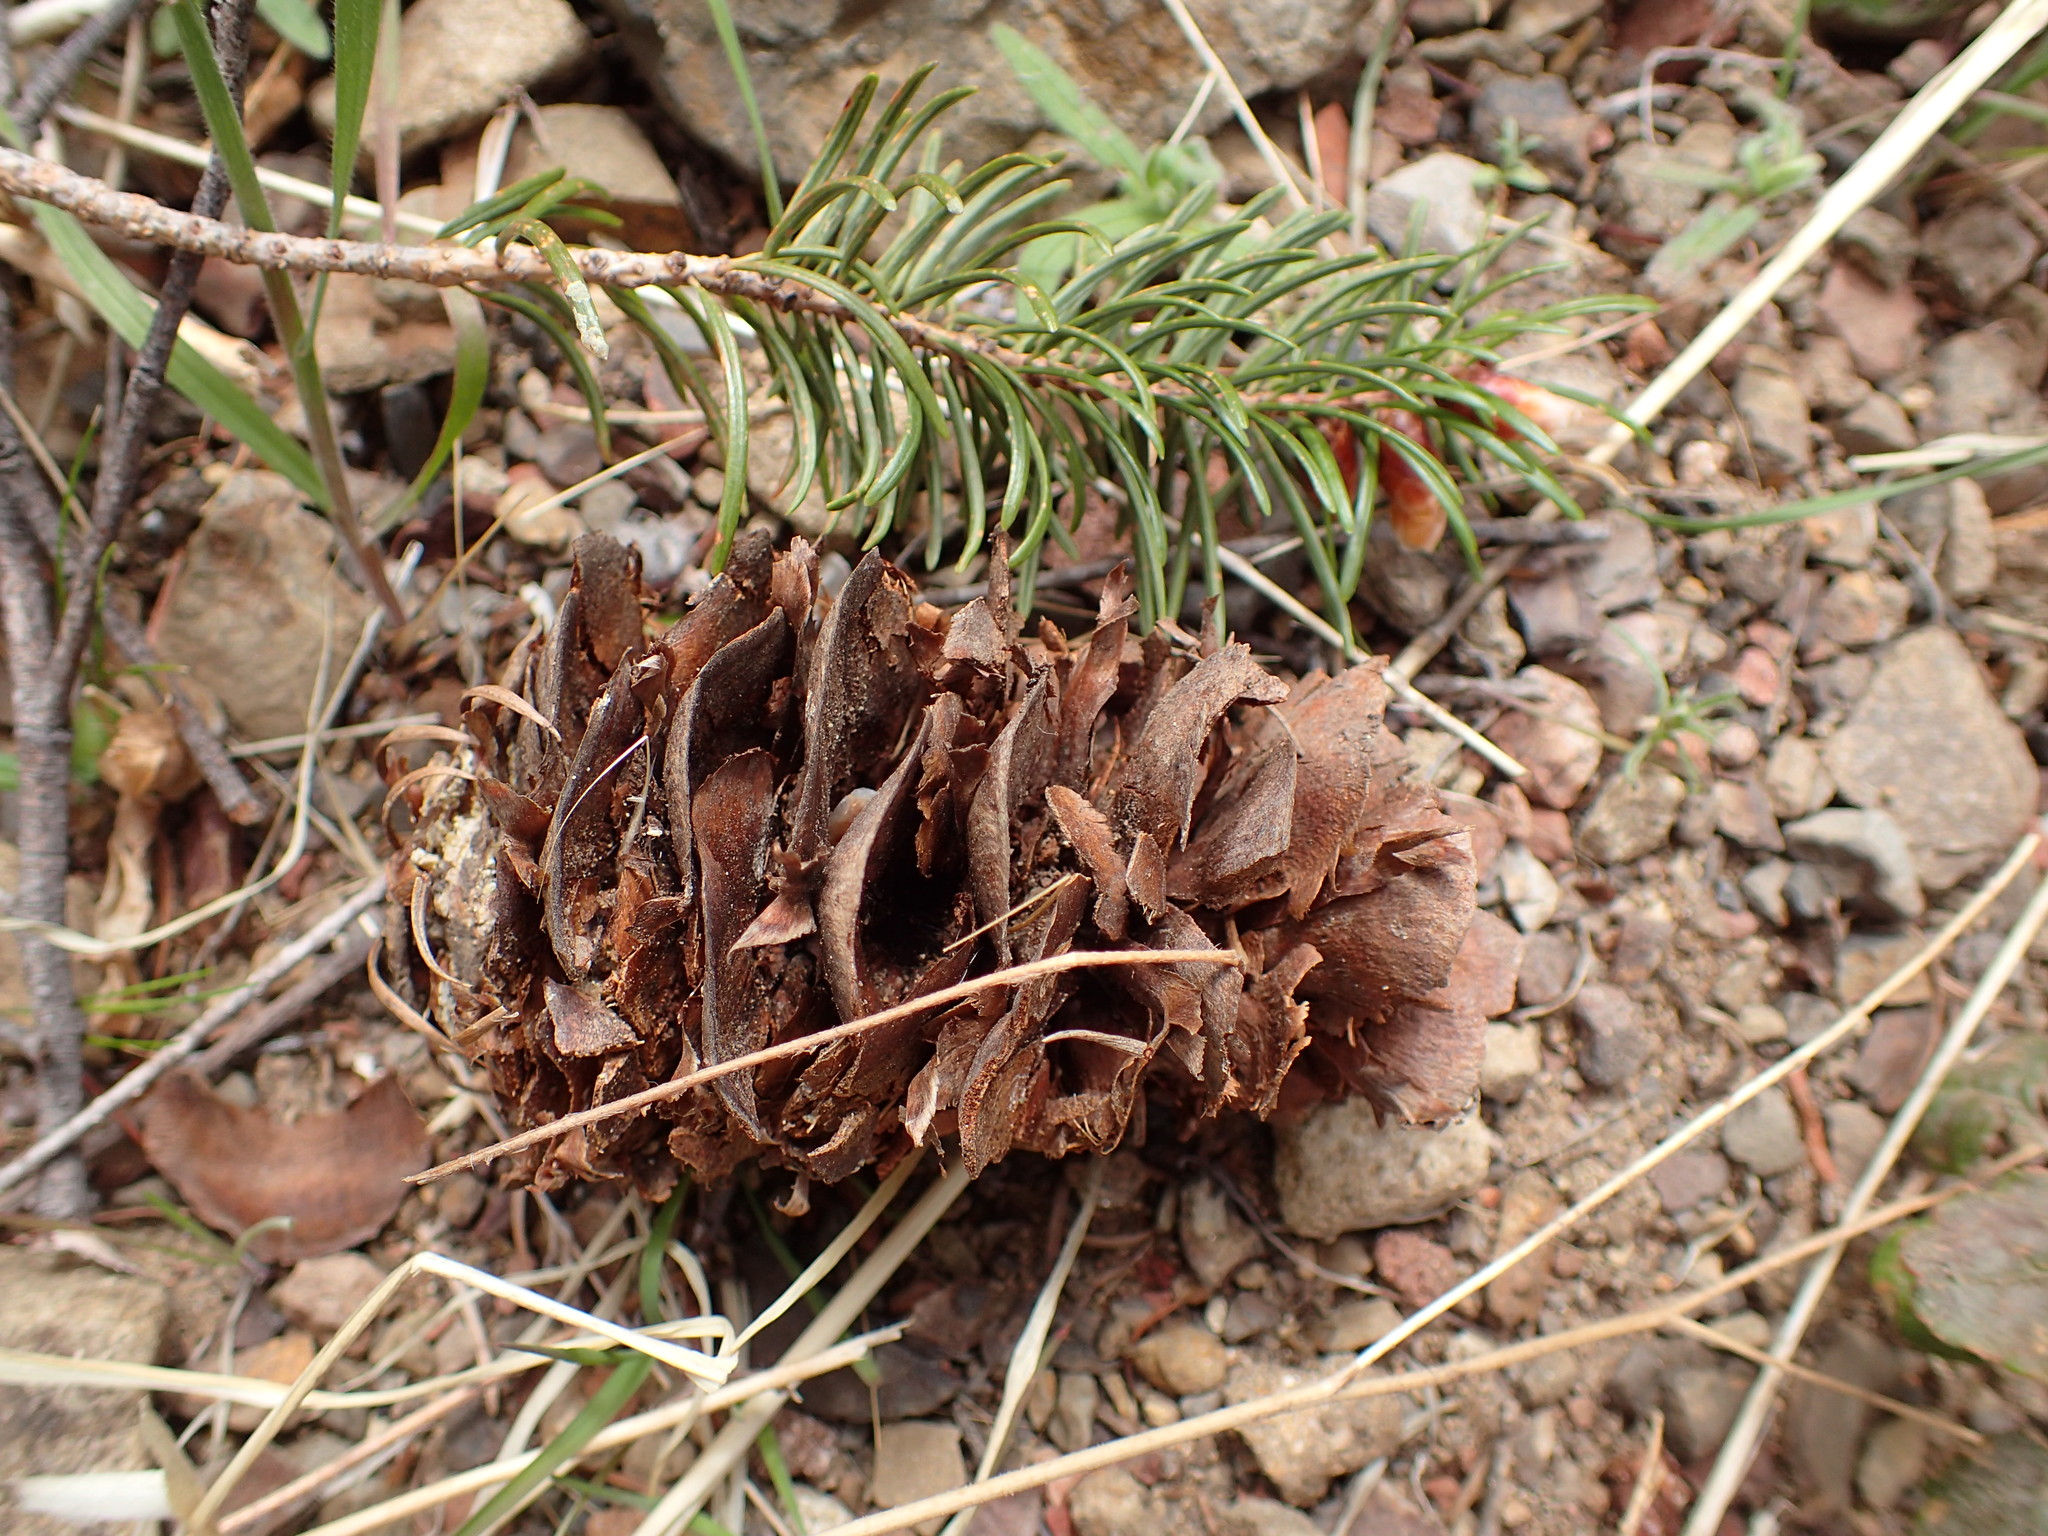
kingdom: Plantae
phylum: Tracheophyta
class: Pinopsida
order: Pinales
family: Pinaceae
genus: Pseudotsuga
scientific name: Pseudotsuga macrocarpa
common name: Big-cone douglas-fir
